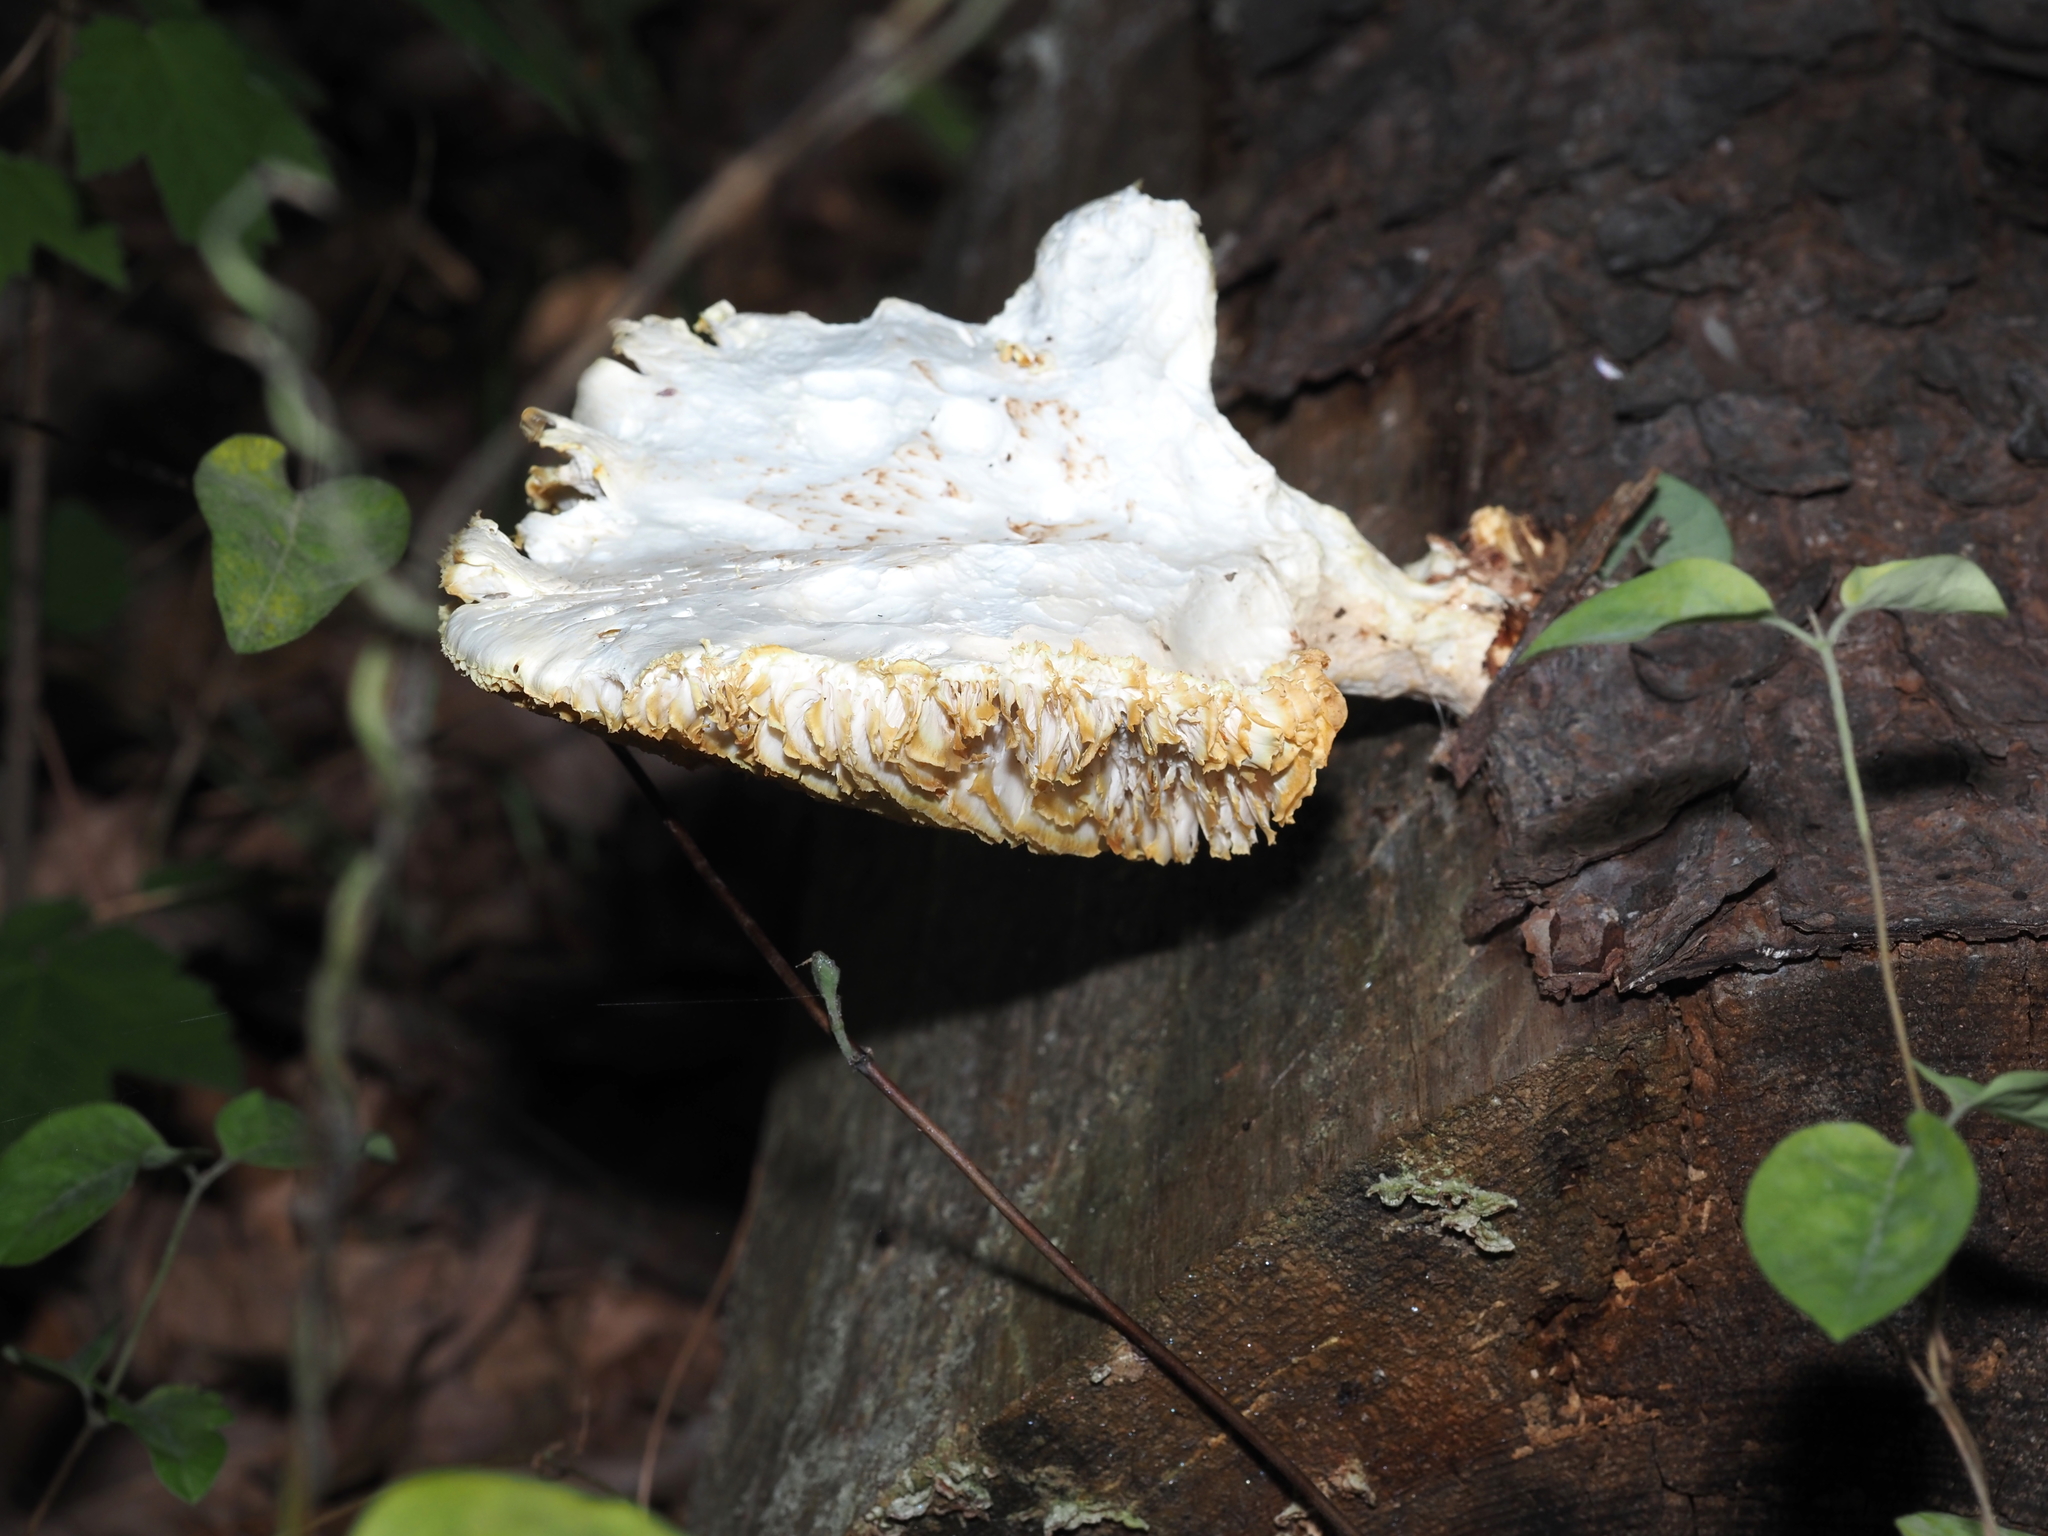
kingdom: Fungi
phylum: Basidiomycota
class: Agaricomycetes
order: Gloeophyllales
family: Gloeophyllaceae
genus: Neolentinus
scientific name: Neolentinus lepideus
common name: Scaly sawgill
